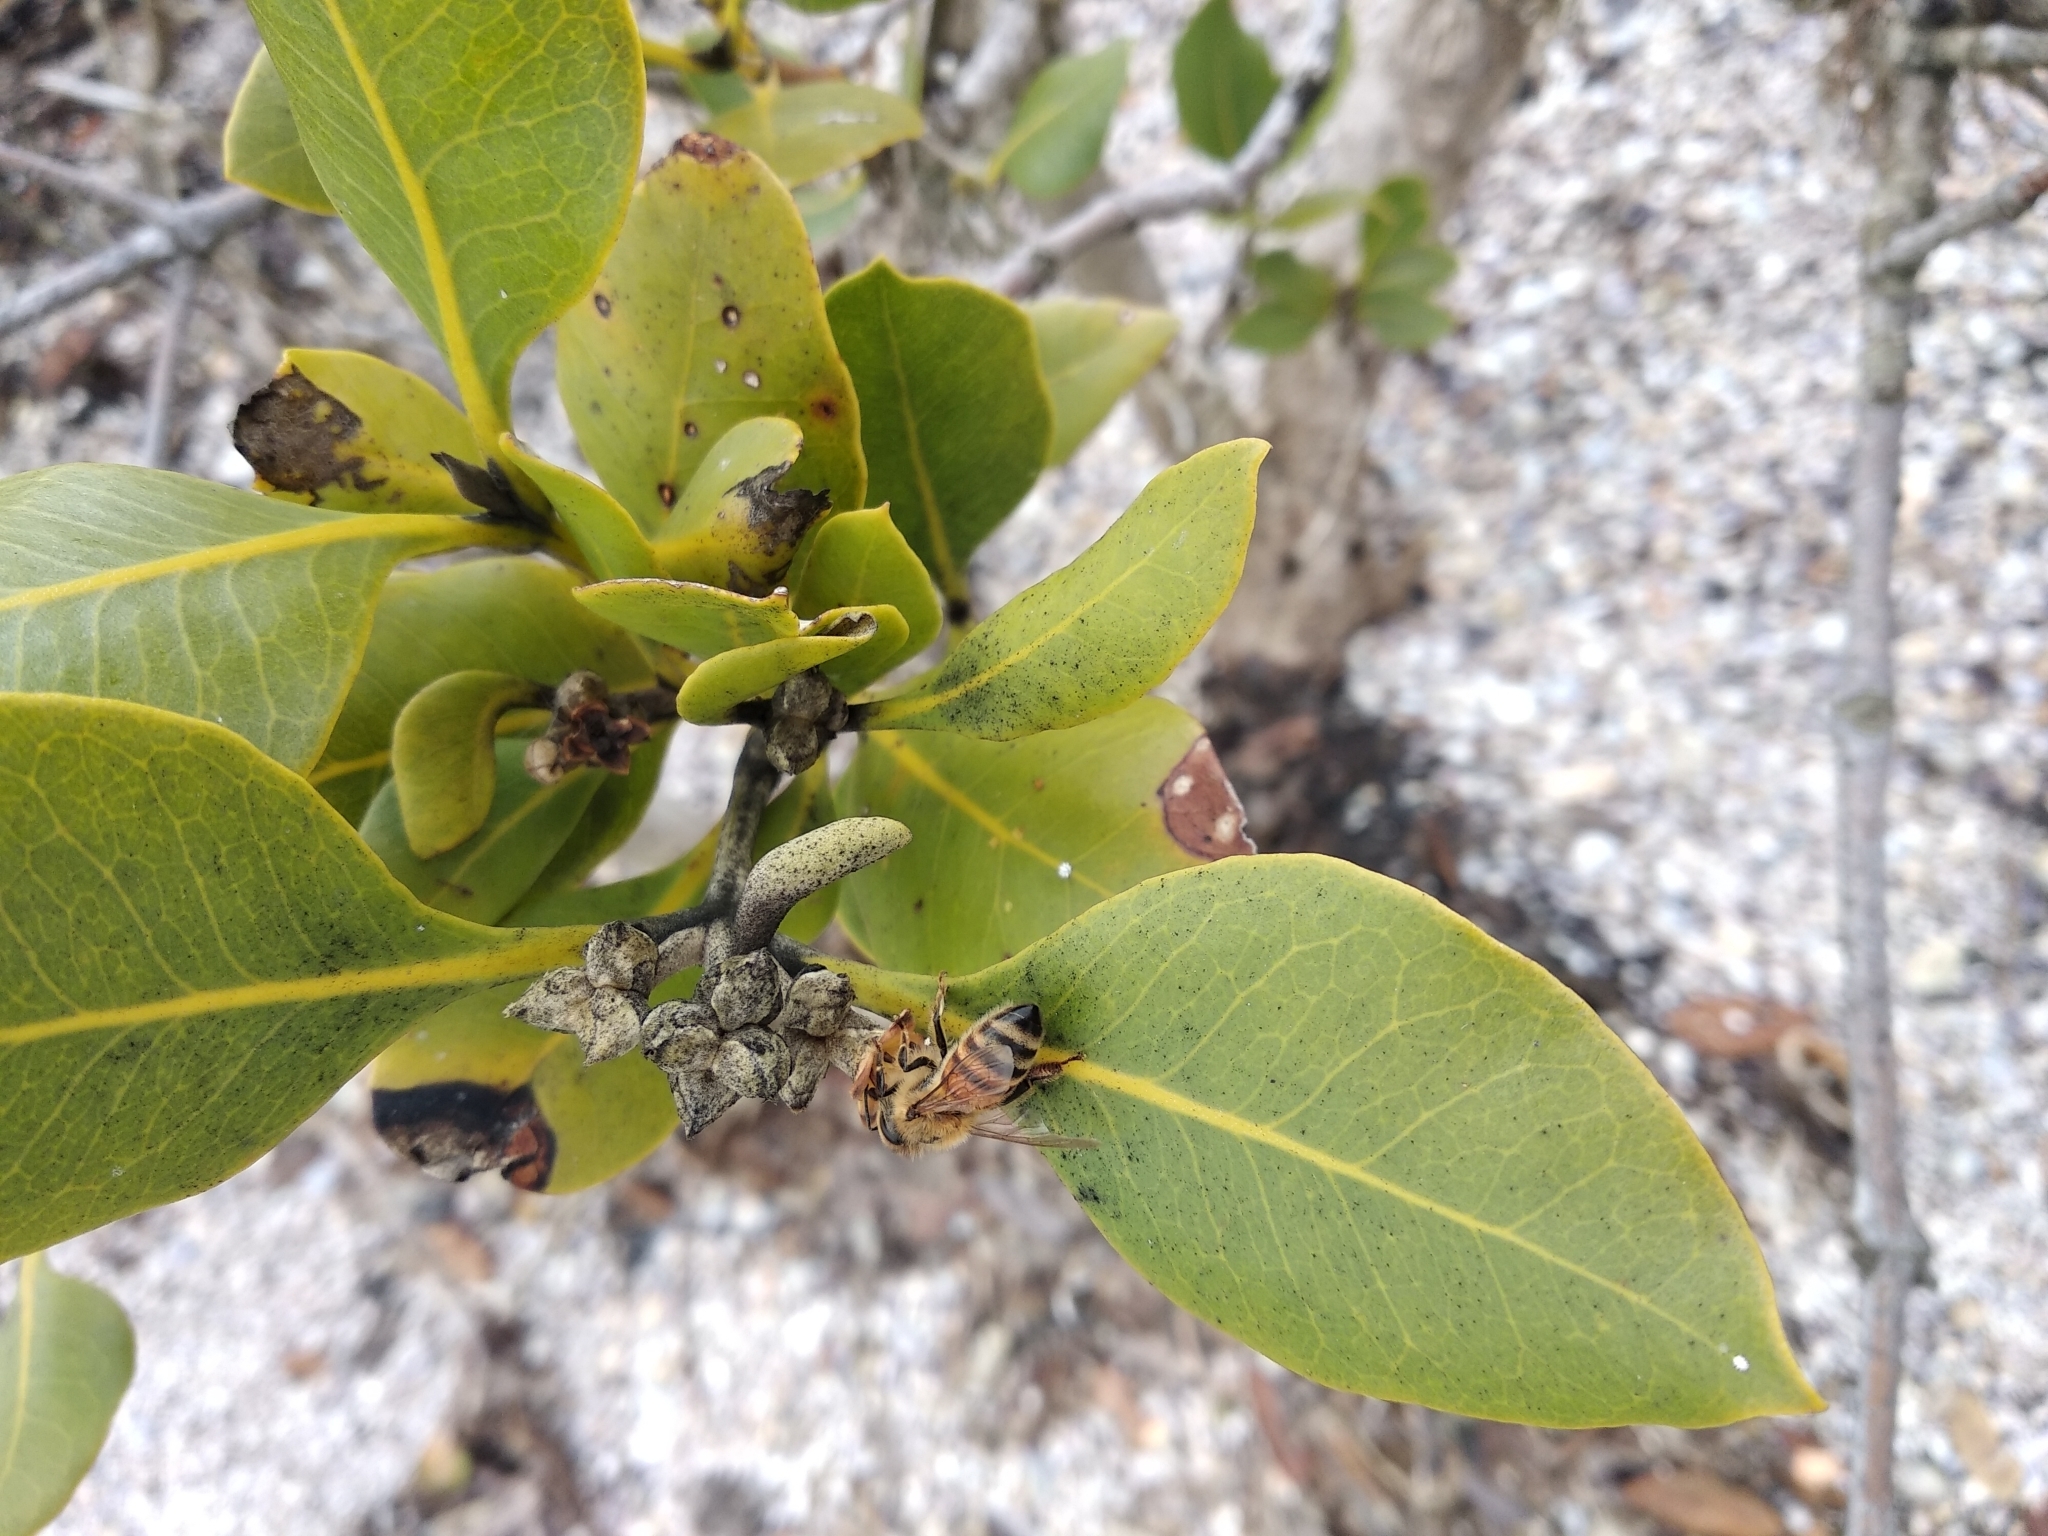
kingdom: Animalia
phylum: Arthropoda
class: Insecta
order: Hymenoptera
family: Apidae
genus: Apis
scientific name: Apis mellifera
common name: Honey bee
